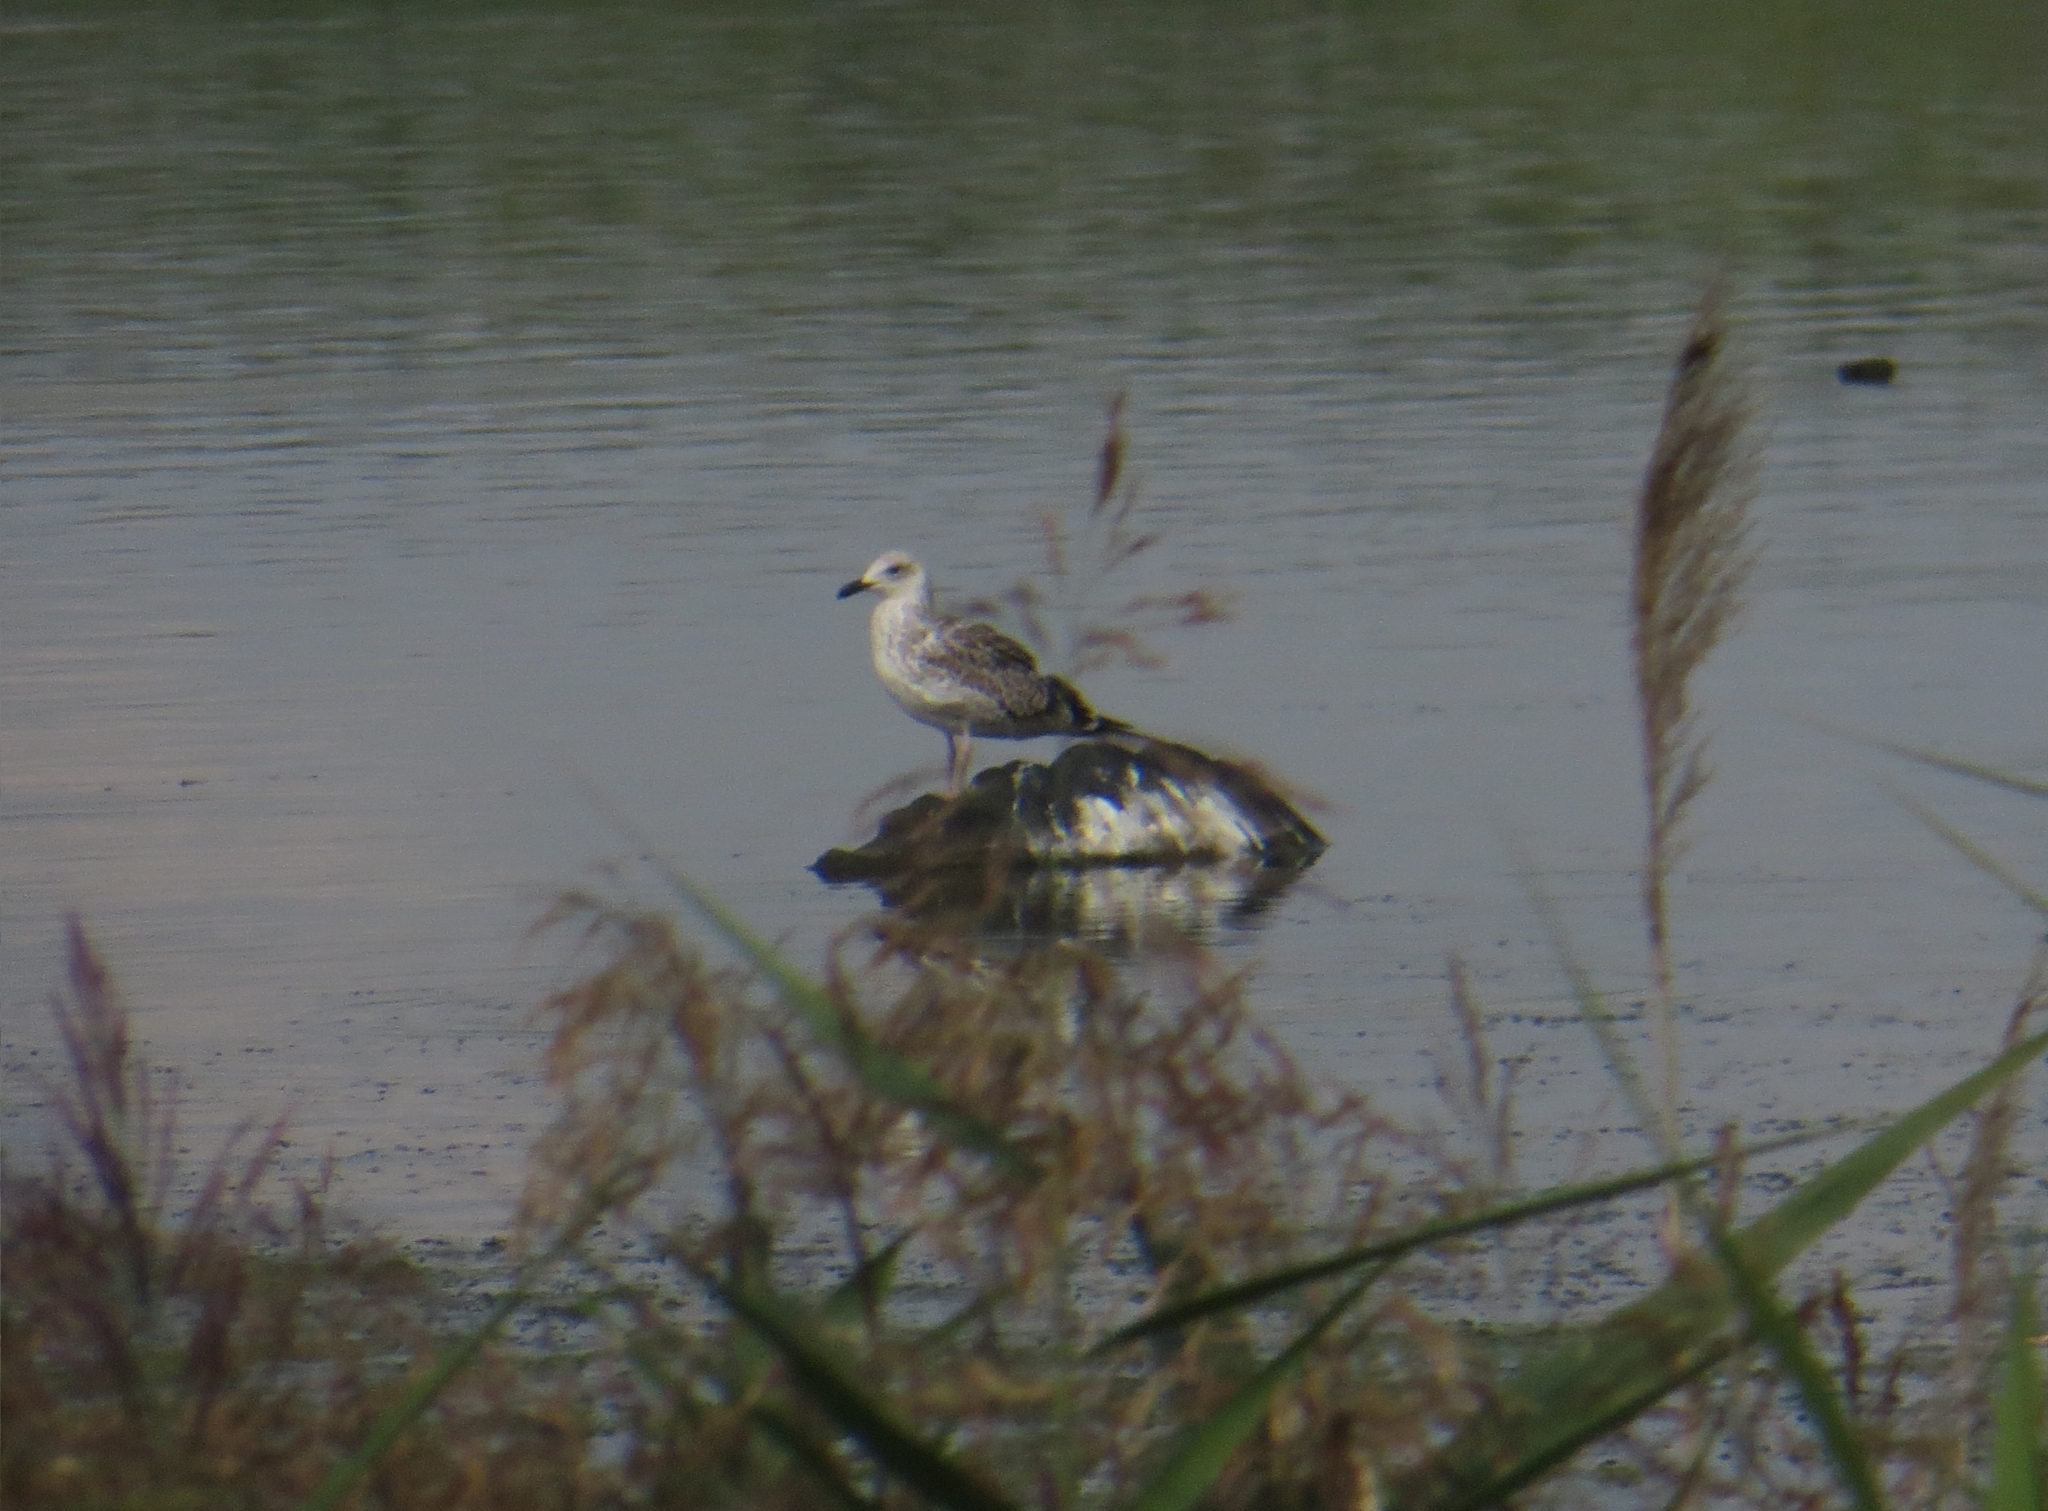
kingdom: Animalia
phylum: Chordata
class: Aves
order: Charadriiformes
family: Laridae
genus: Larus
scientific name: Larus fuscus
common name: Lesser black-backed gull
